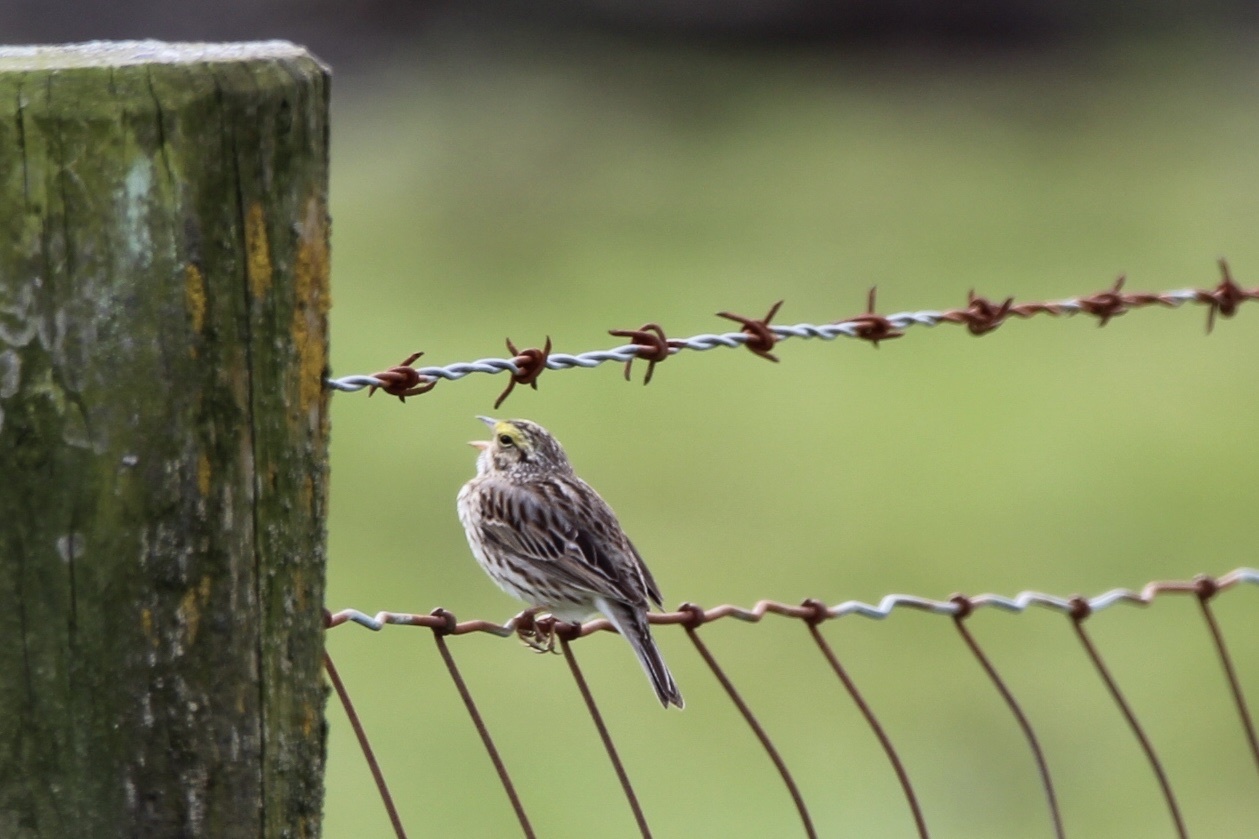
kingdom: Animalia
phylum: Chordata
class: Aves
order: Passeriformes
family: Passerellidae
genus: Passerculus
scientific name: Passerculus sandwichensis
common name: Savannah sparrow
